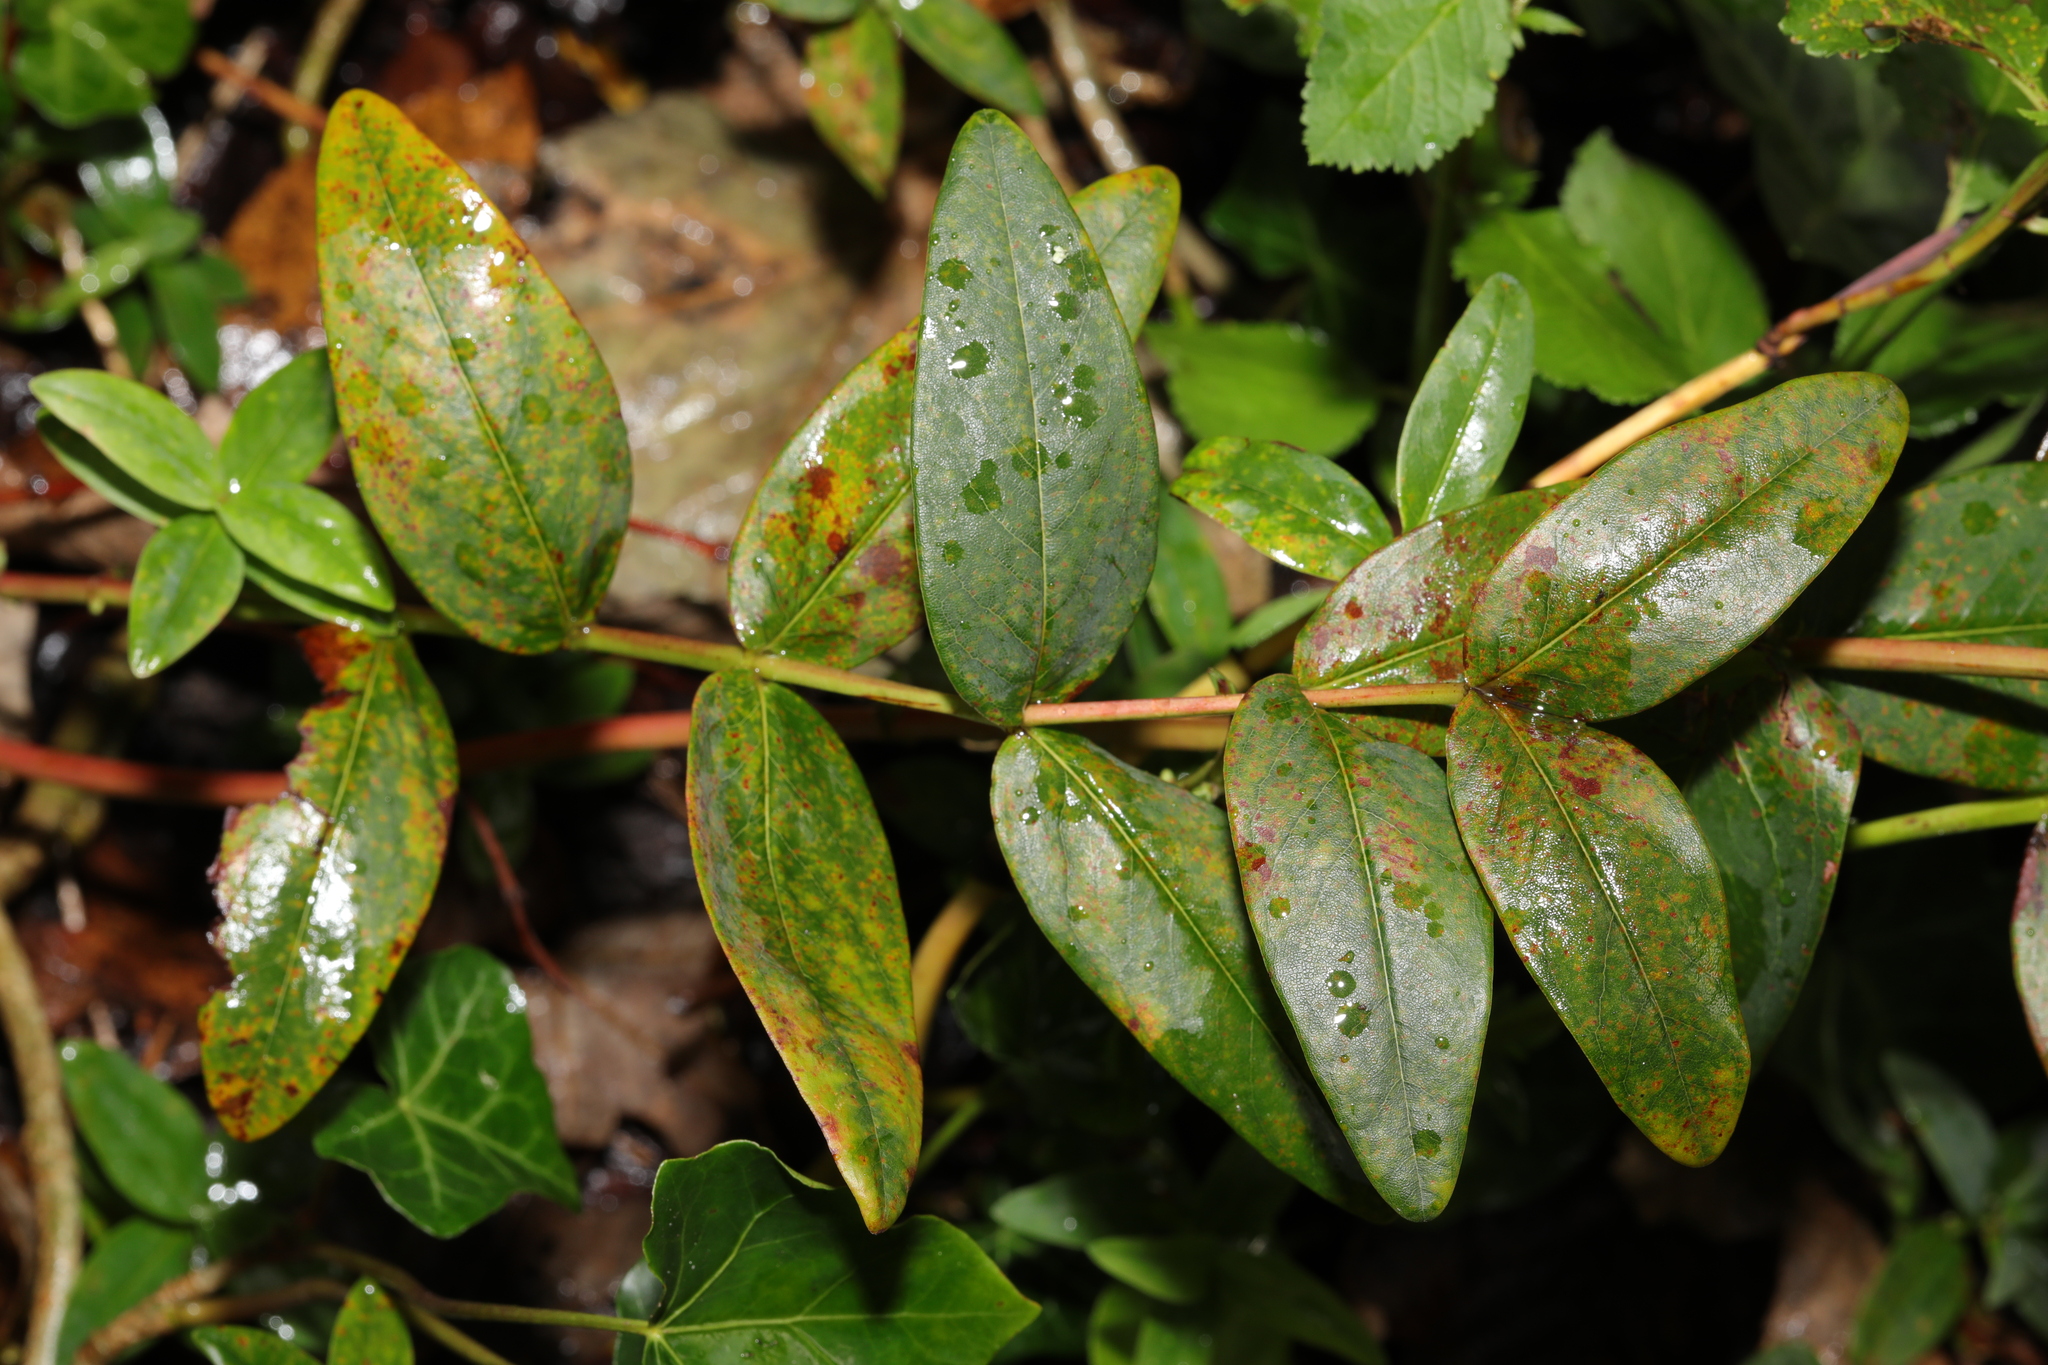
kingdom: Plantae
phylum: Tracheophyta
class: Magnoliopsida
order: Malpighiales
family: Hypericaceae
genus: Hypericum
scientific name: Hypericum androsaemum
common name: Sweet-amber
